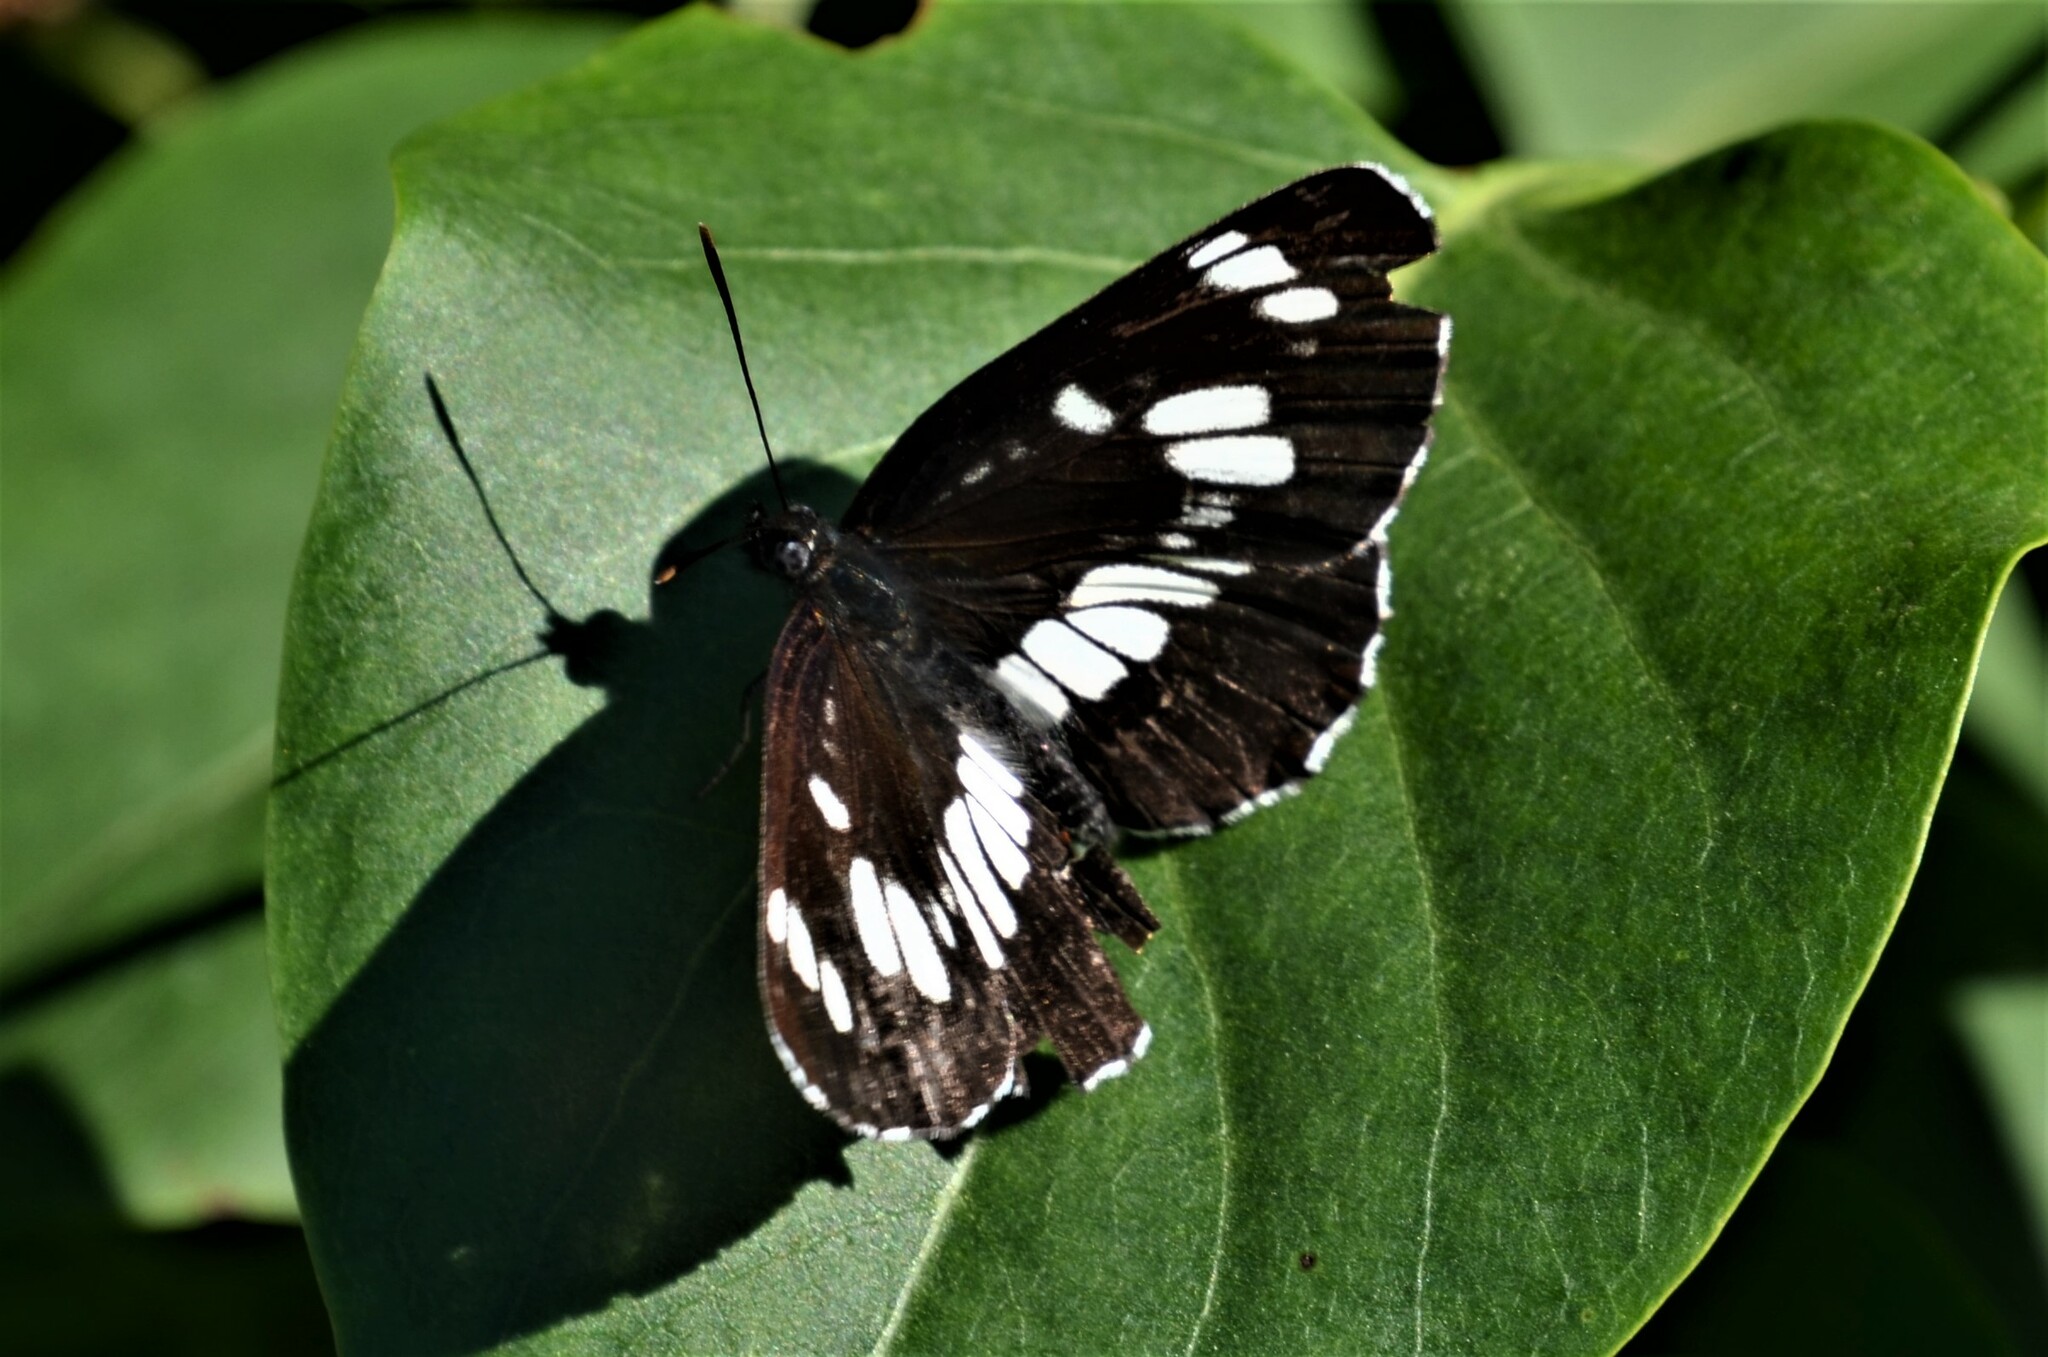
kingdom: Animalia
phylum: Arthropoda
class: Insecta
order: Lepidoptera
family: Nymphalidae
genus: Neptis
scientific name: Neptis rivularis
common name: Hungarian glider
